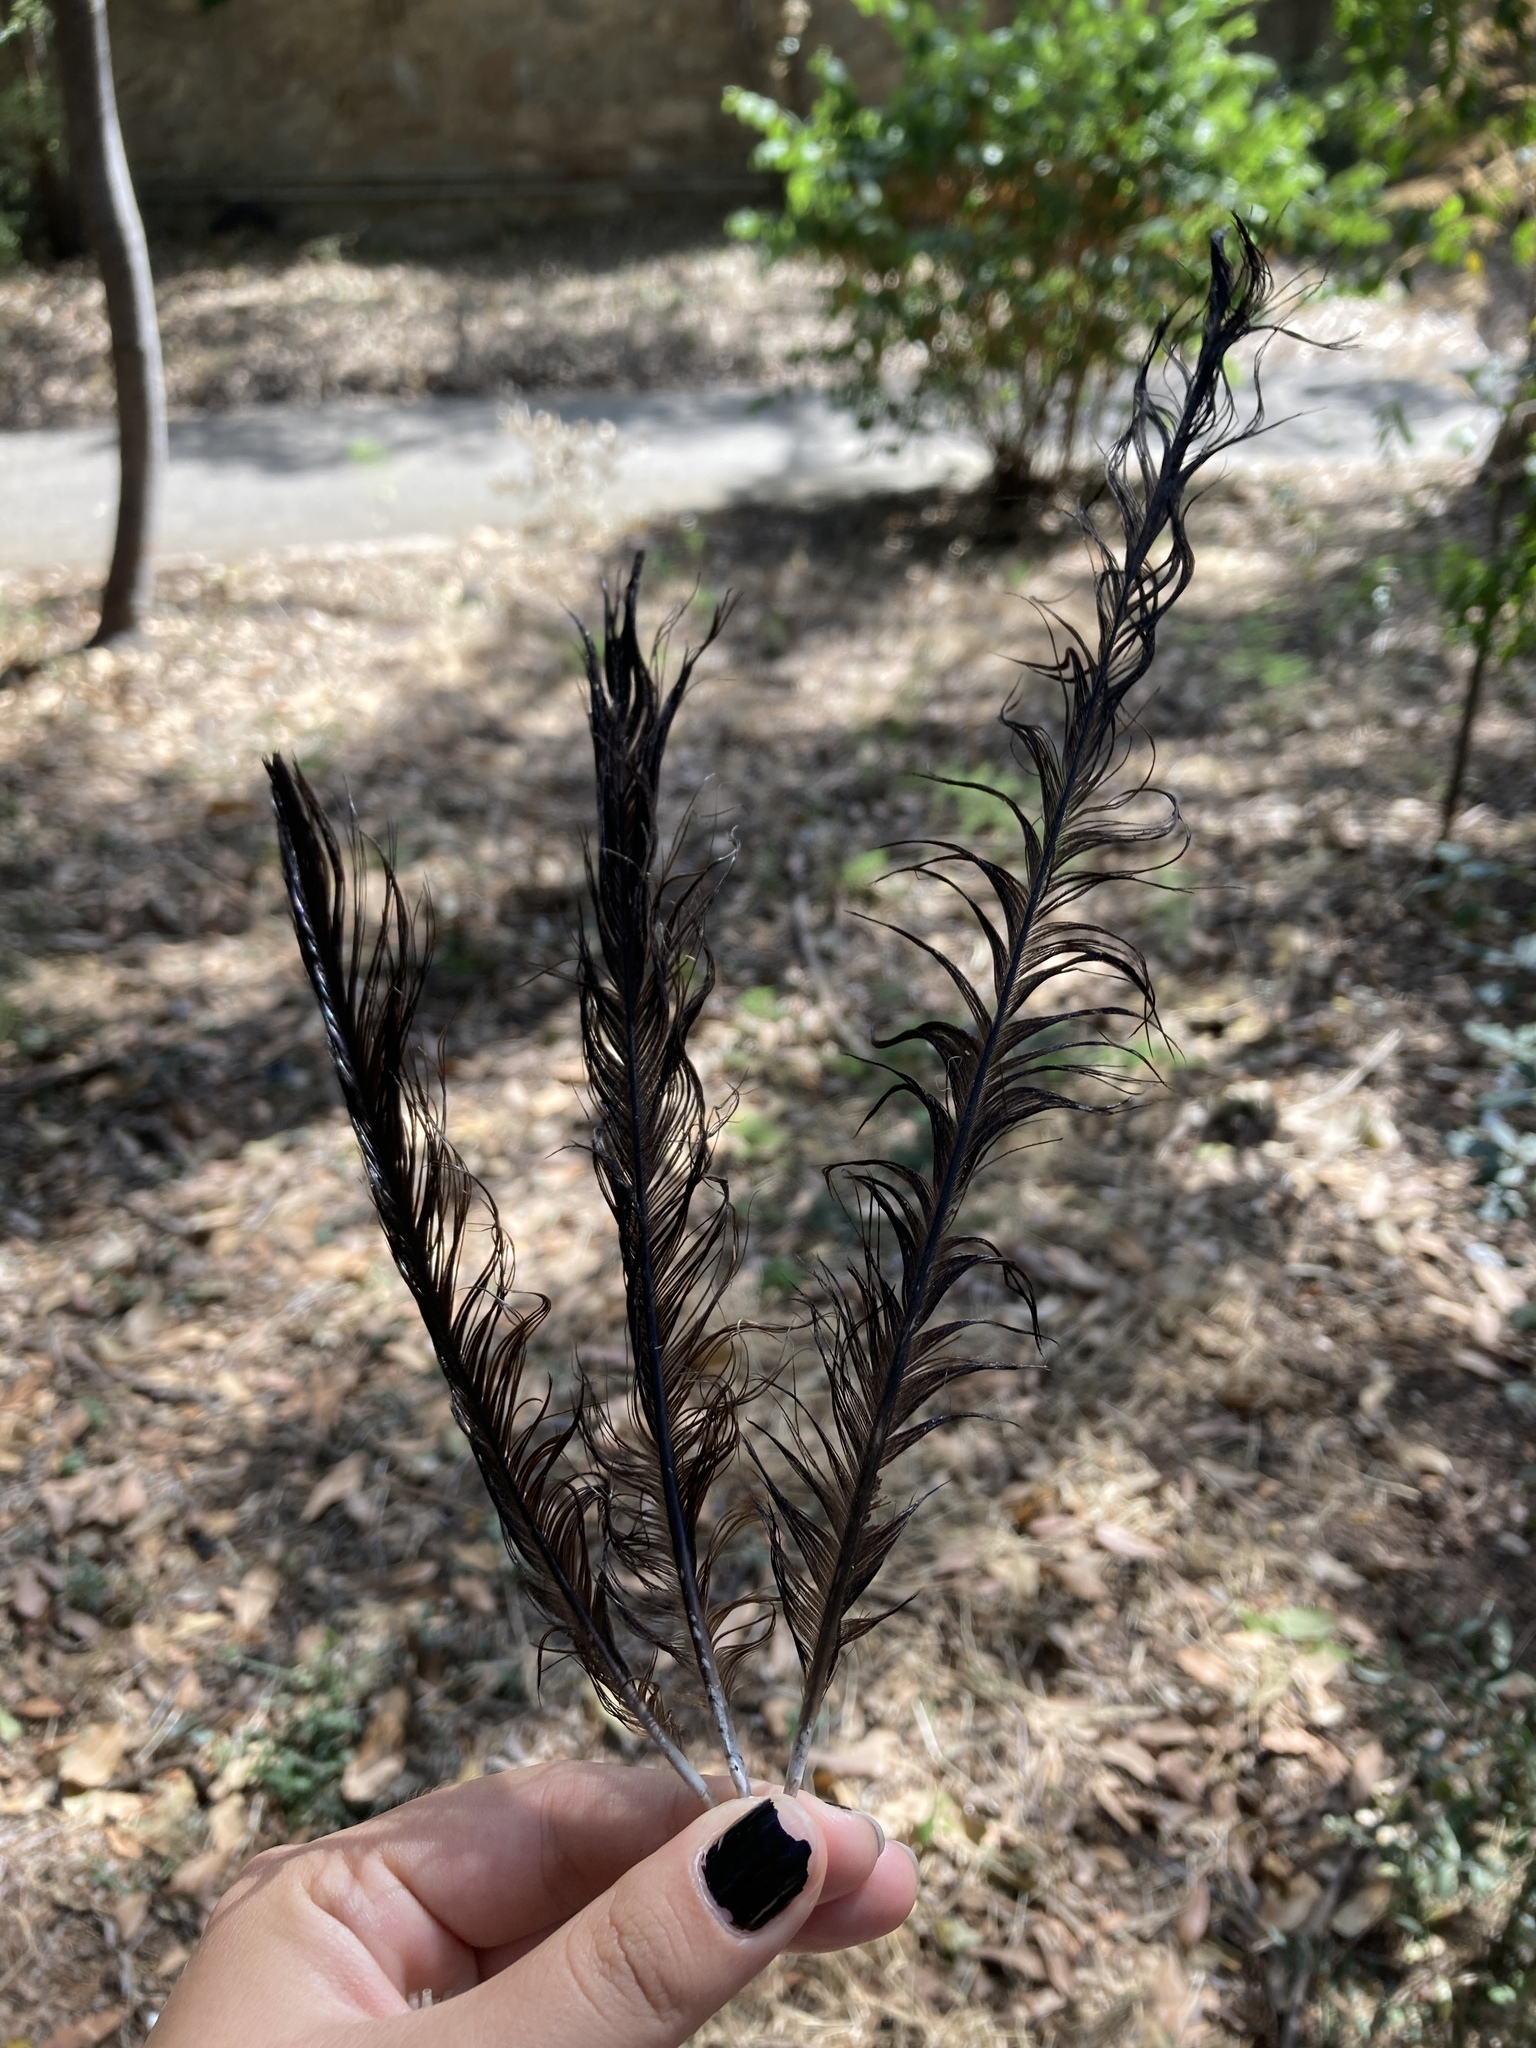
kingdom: Animalia
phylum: Chordata
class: Aves
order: Passeriformes
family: Corvidae
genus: Pica
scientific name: Pica pica
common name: Eurasian magpie
